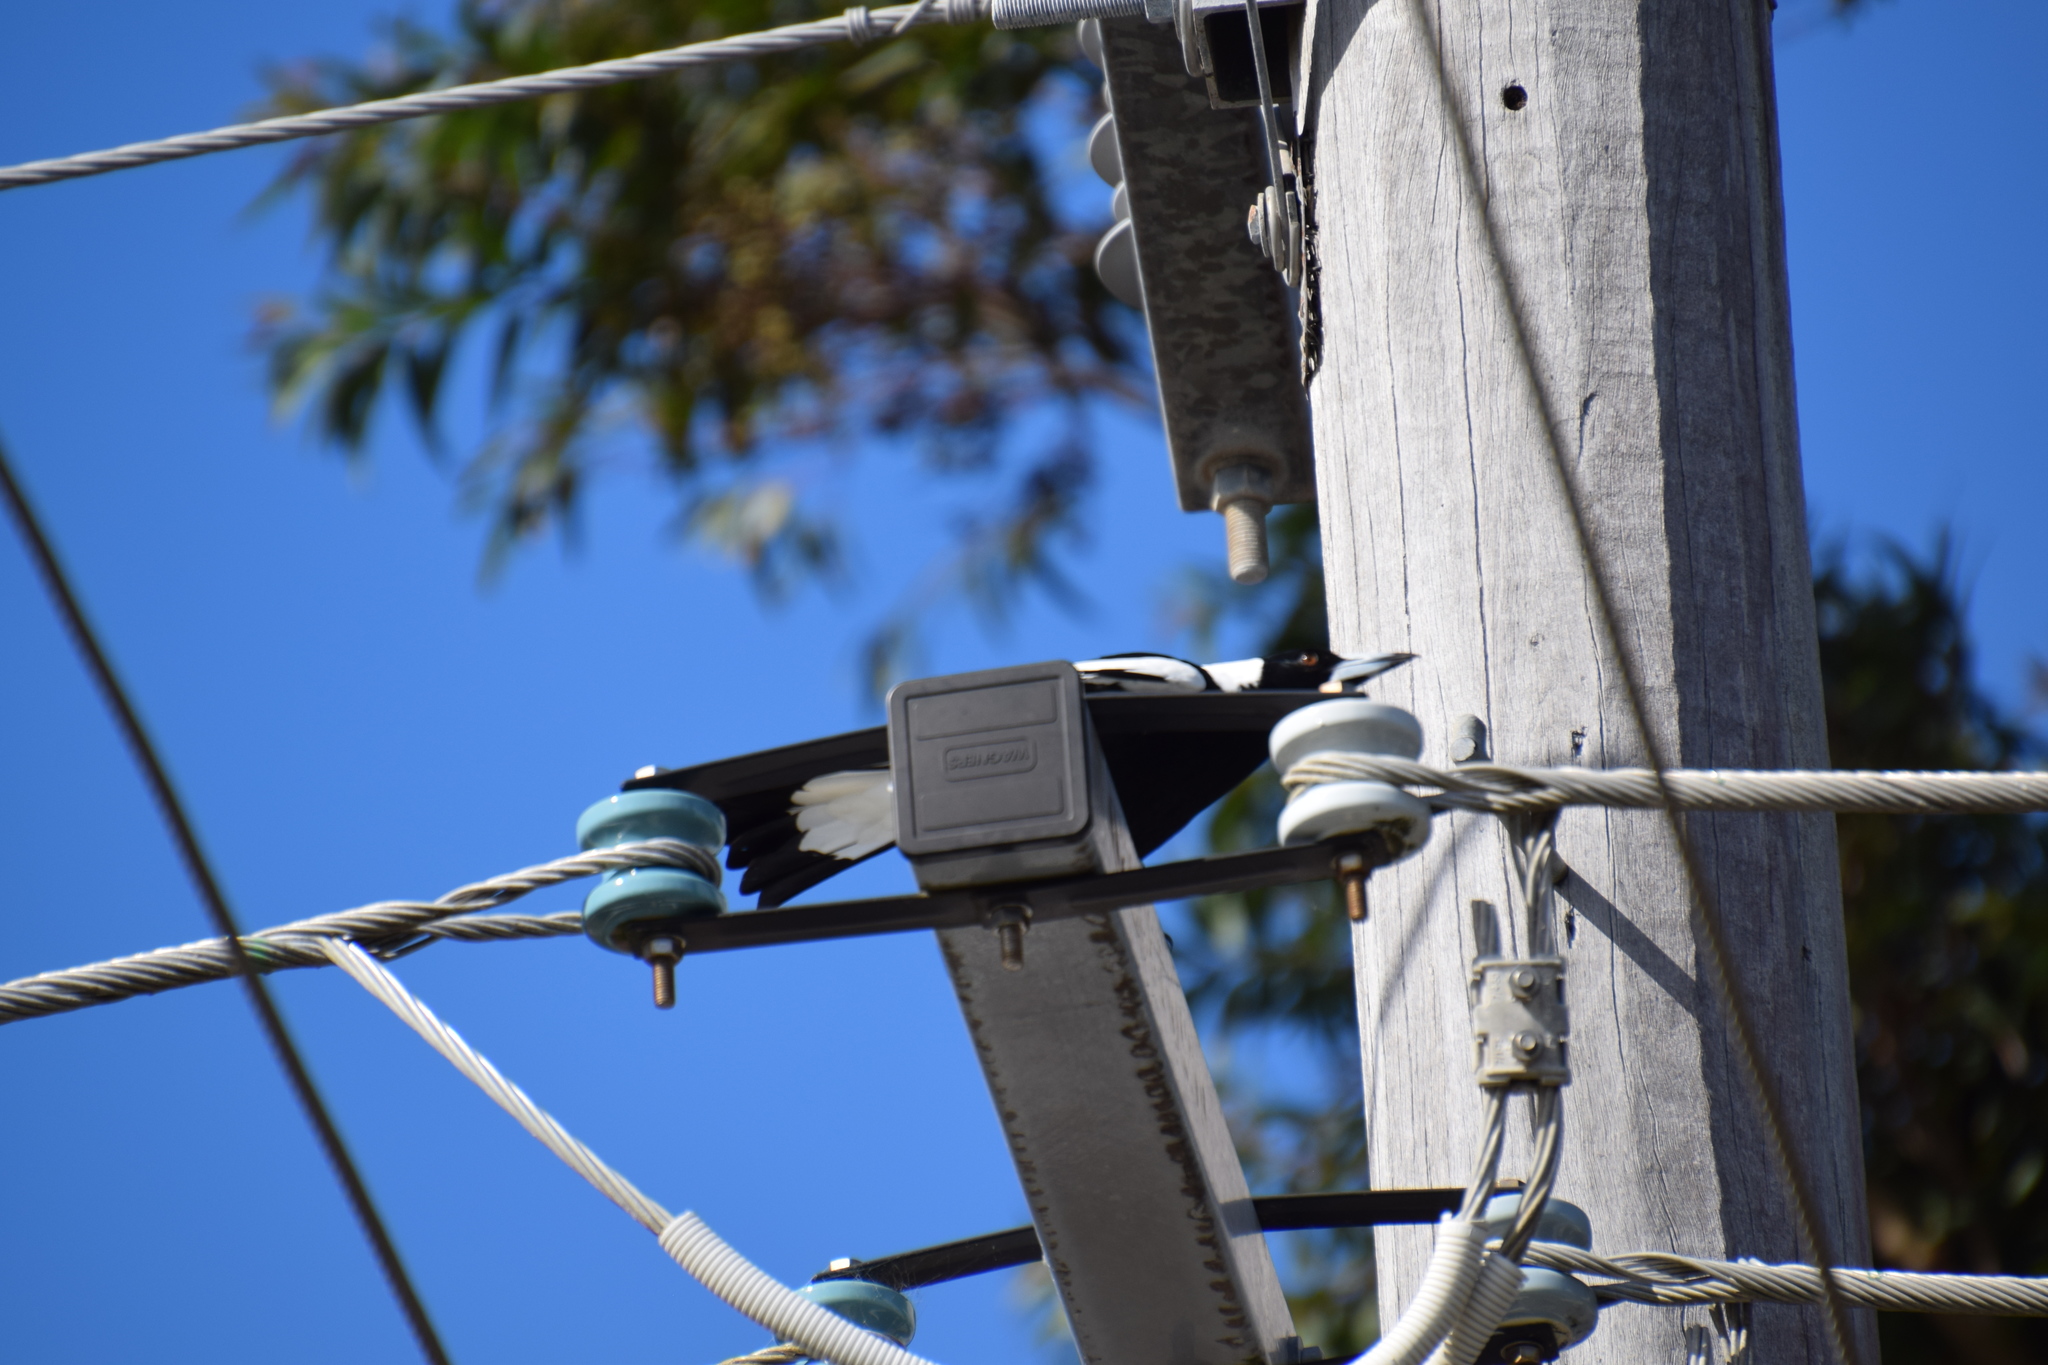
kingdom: Animalia
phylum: Chordata
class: Aves
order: Passeriformes
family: Cracticidae
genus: Gymnorhina
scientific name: Gymnorhina tibicen
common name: Australian magpie
